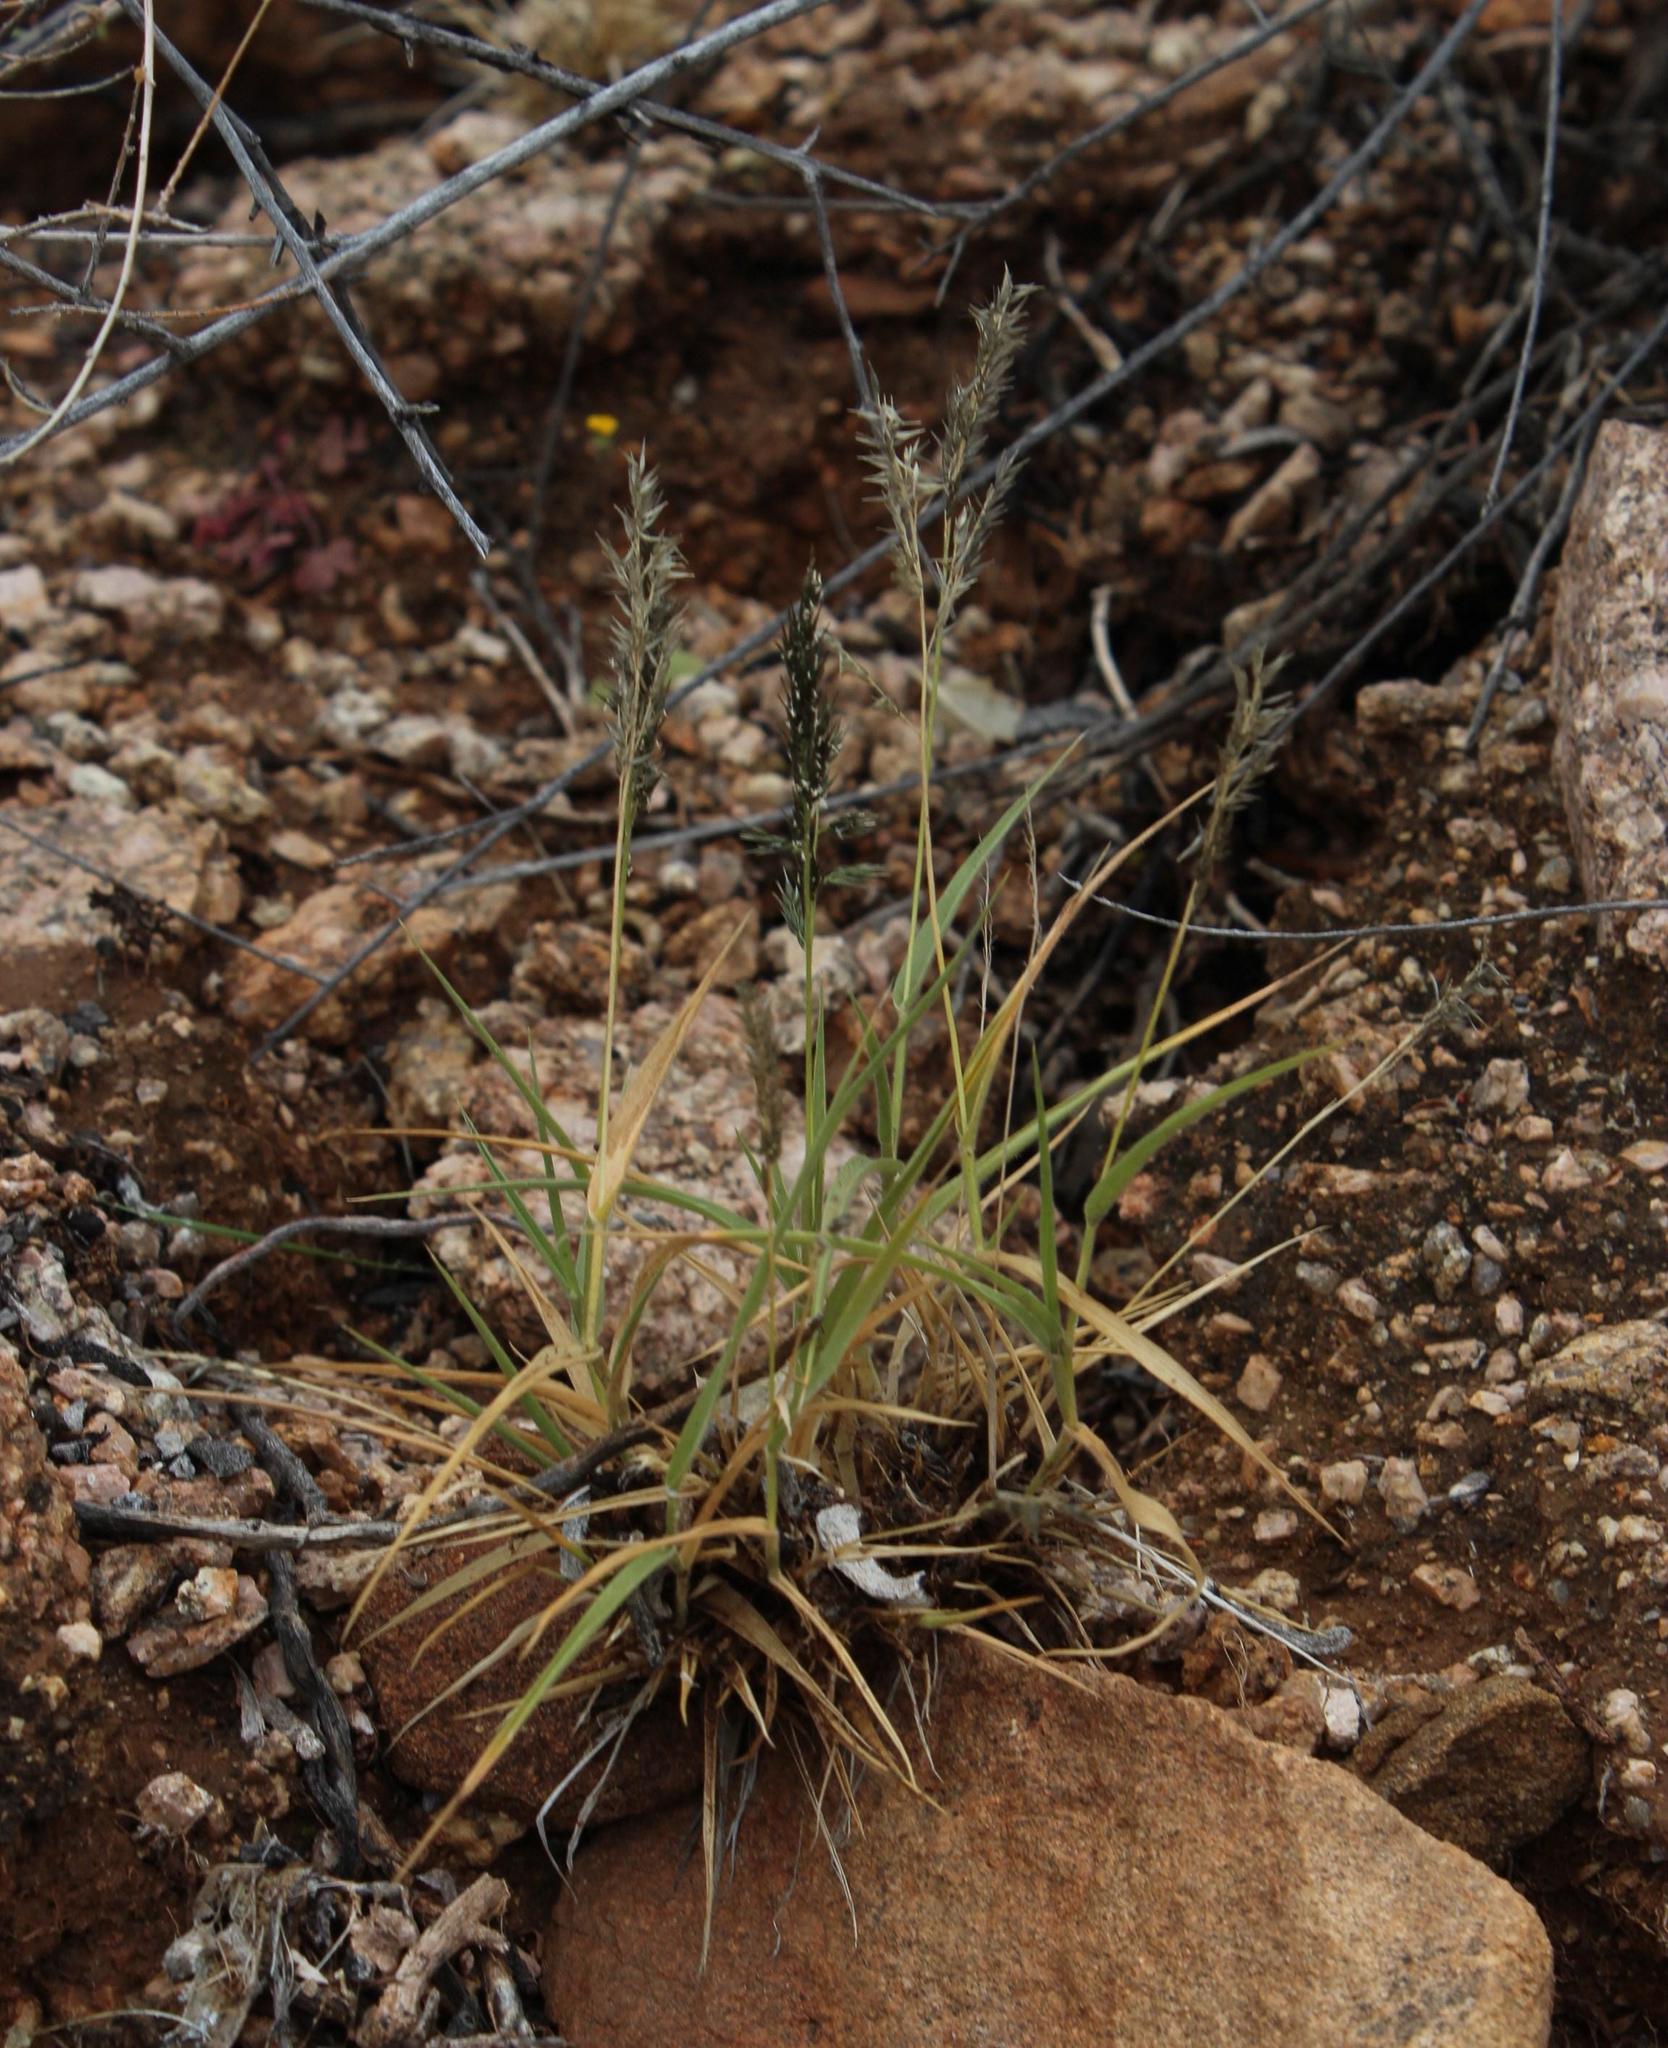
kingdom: Plantae
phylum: Tracheophyta
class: Liliopsida
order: Poales
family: Poaceae
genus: Enneapogon
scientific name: Enneapogon scaber
